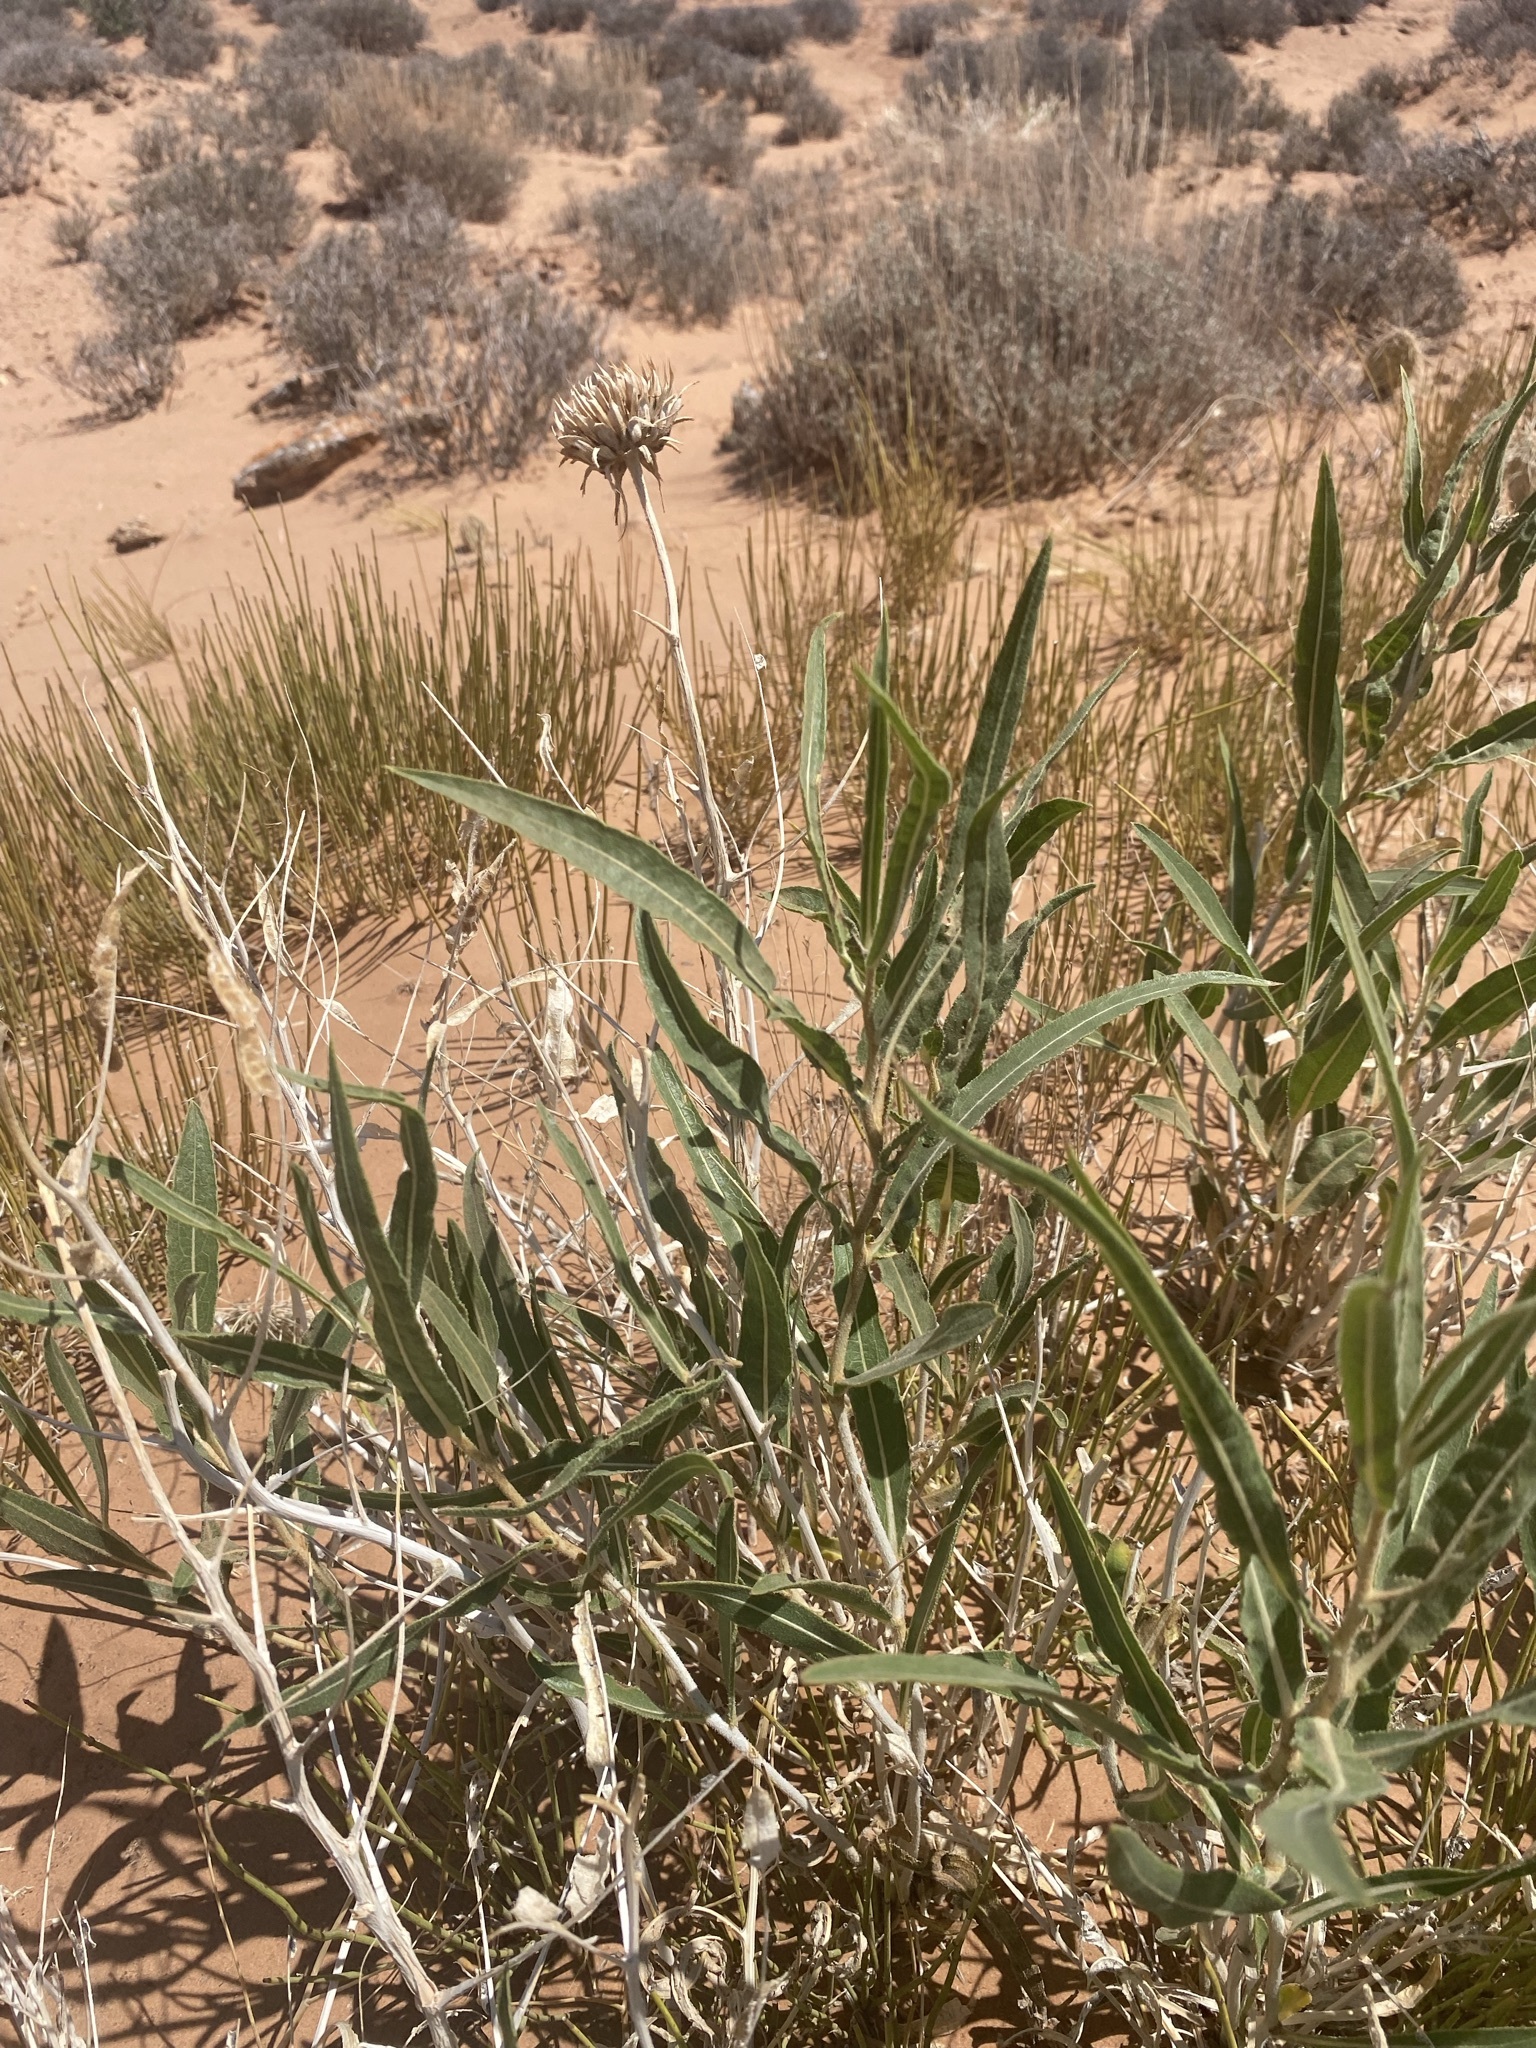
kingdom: Plantae
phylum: Tracheophyta
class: Magnoliopsida
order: Asterales
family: Asteraceae
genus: Scabrethia
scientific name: Scabrethia scabra
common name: Rough mules's-ears
